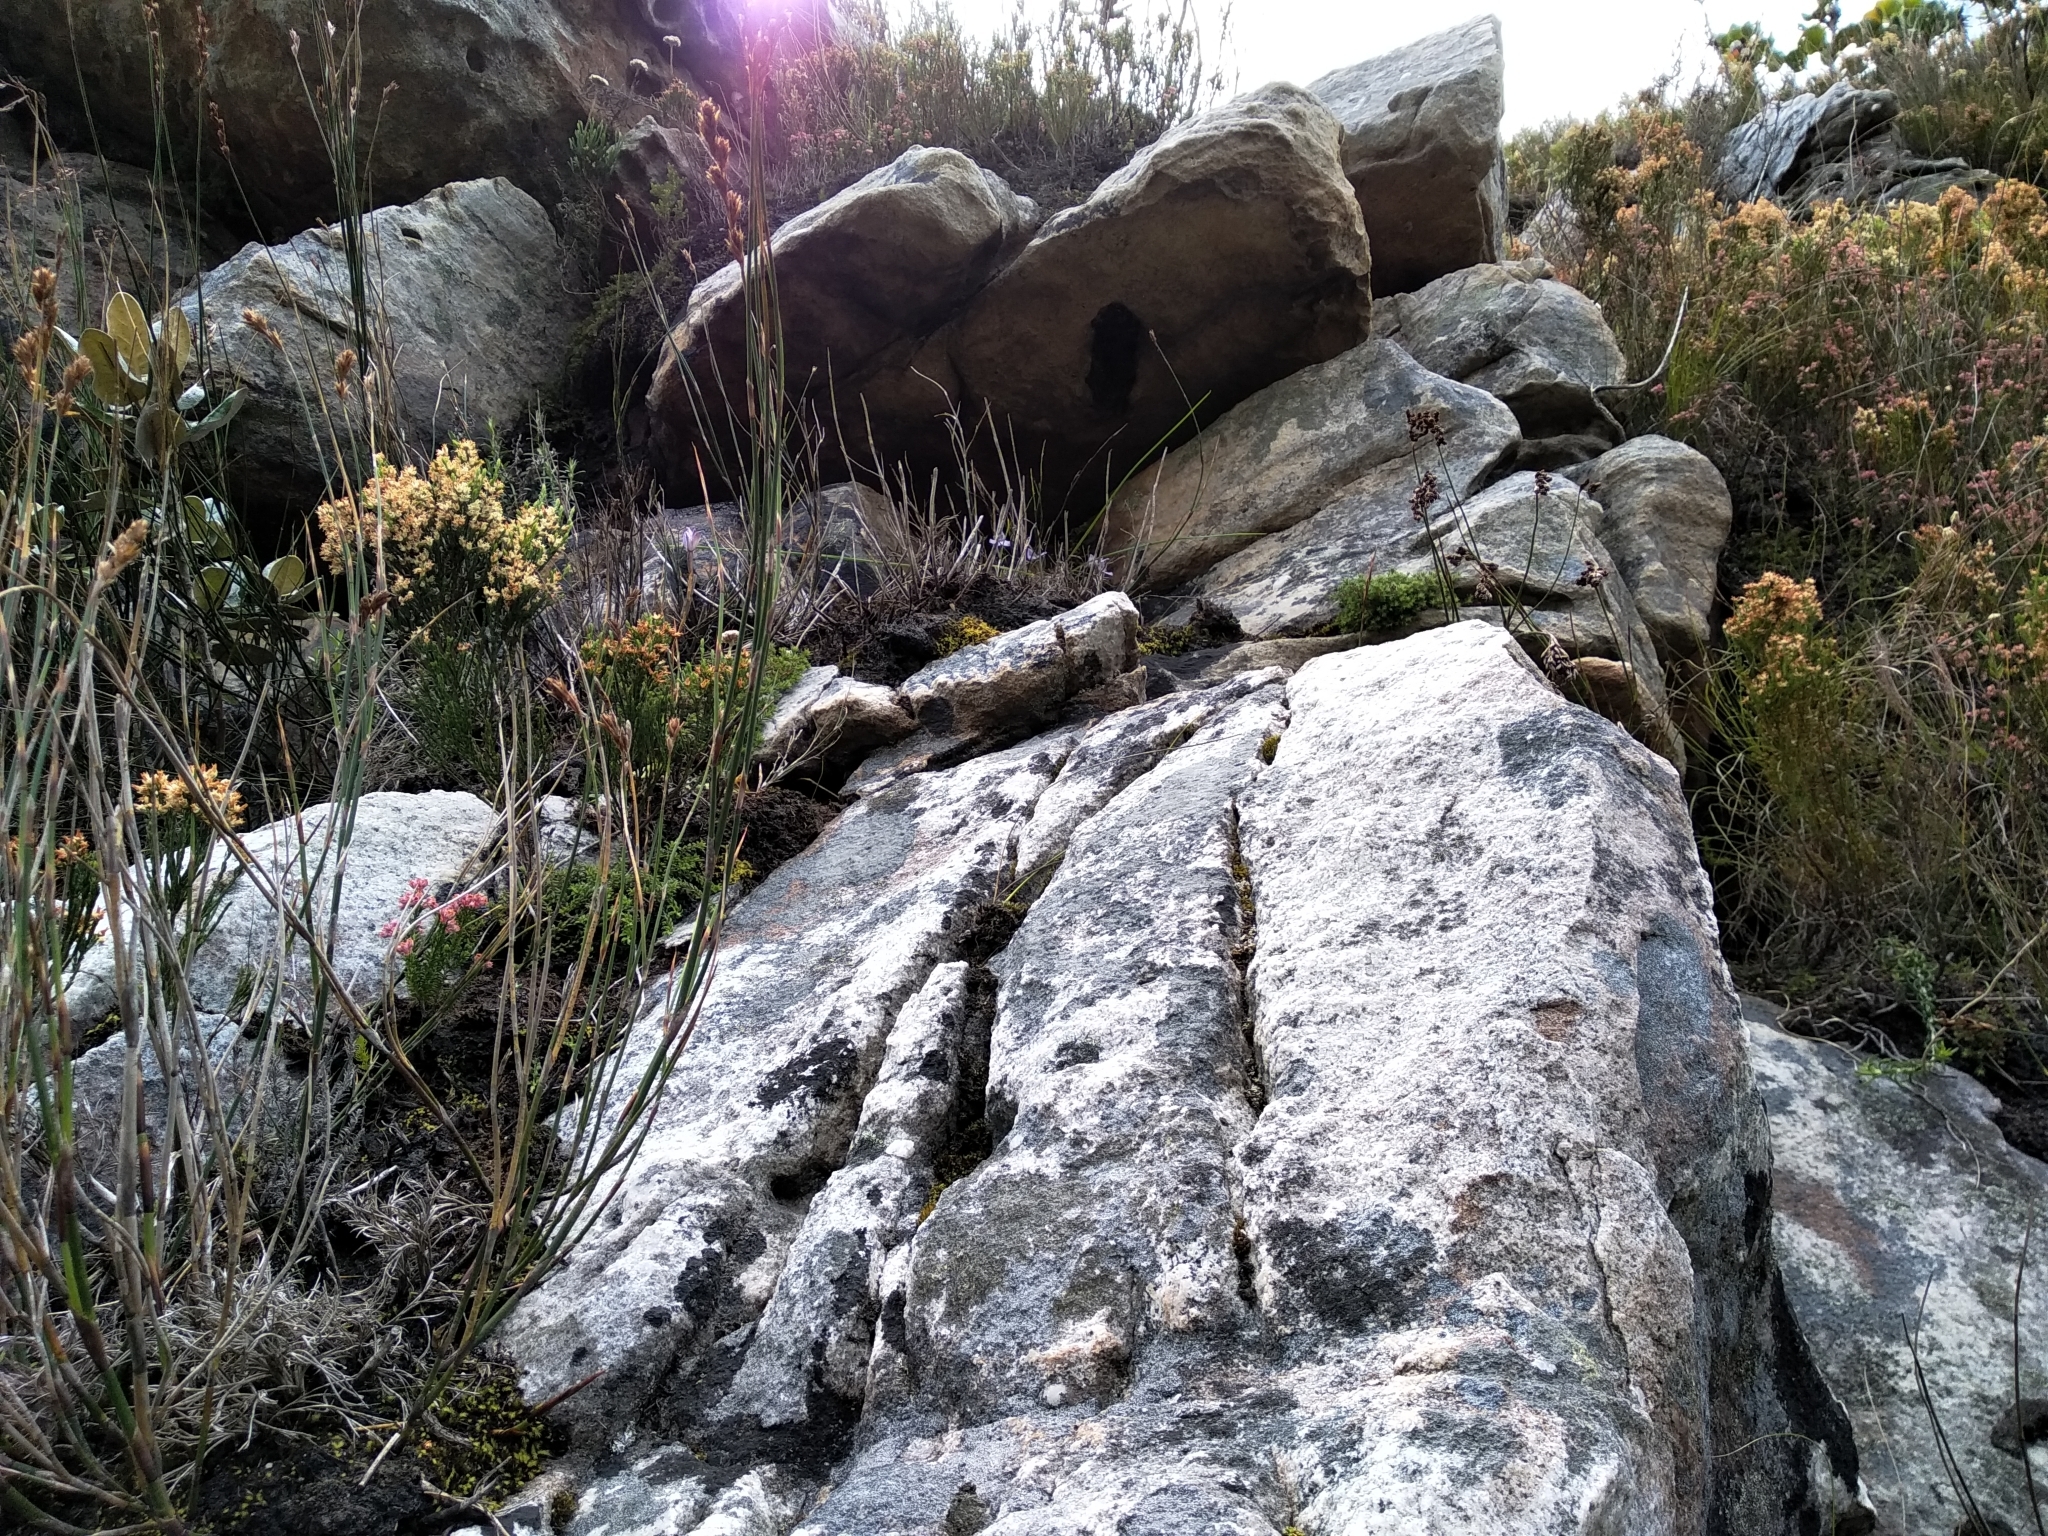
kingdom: Plantae
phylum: Tracheophyta
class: Liliopsida
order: Asparagales
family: Orchidaceae
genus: Disa
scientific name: Disa maculata
